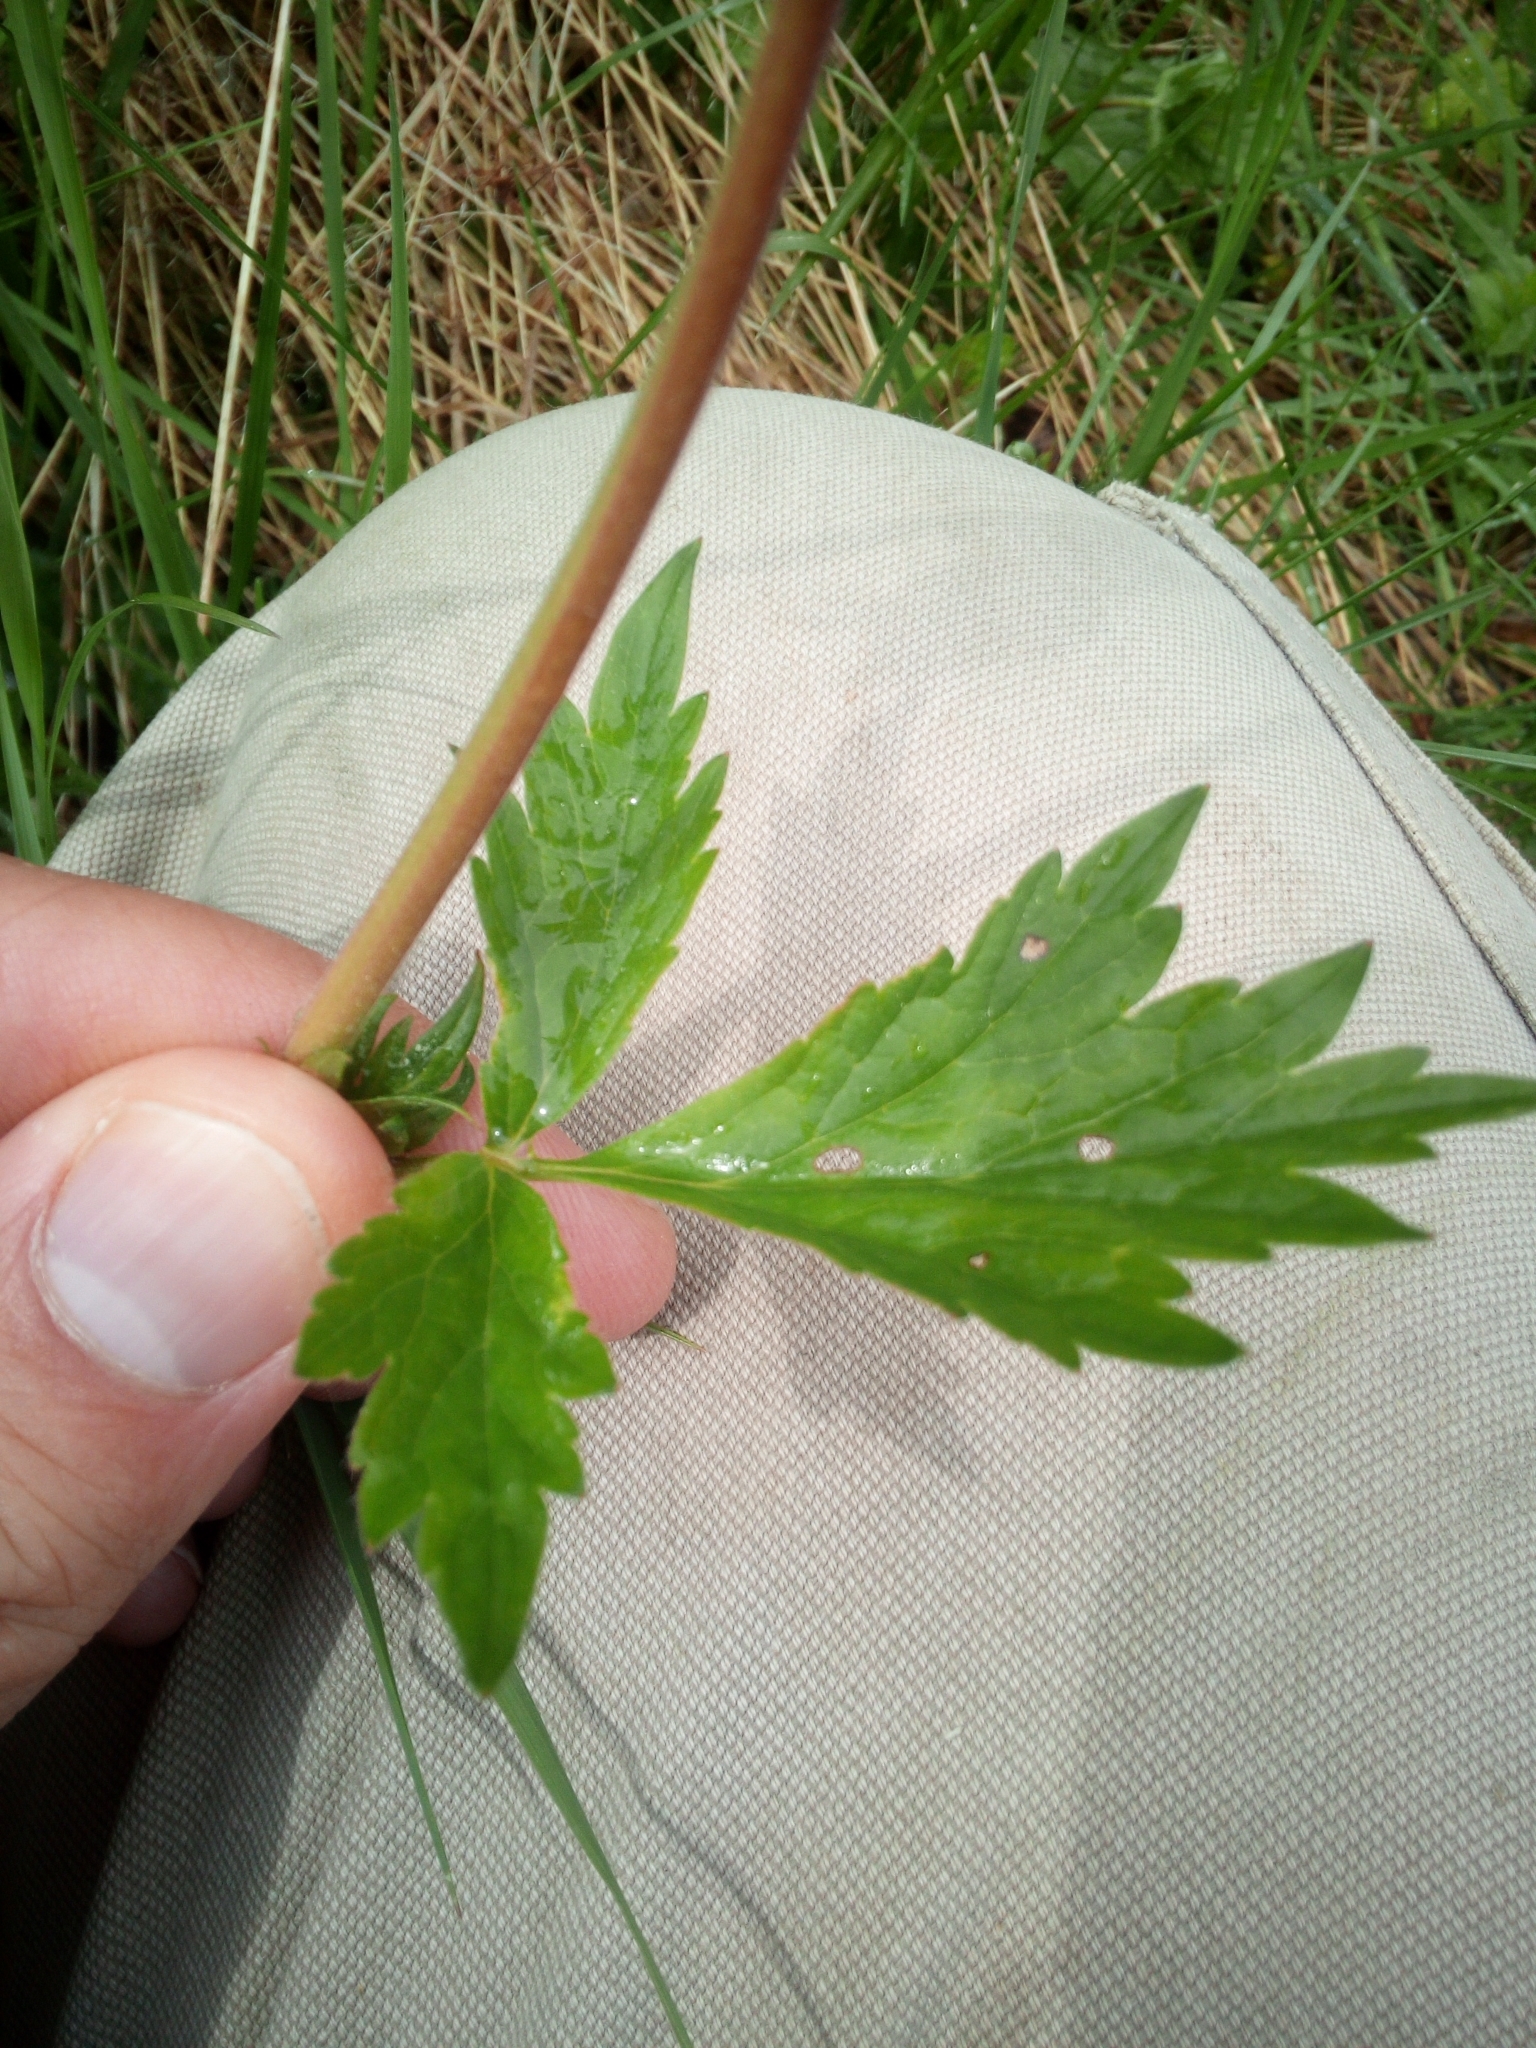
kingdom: Plantae
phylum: Tracheophyta
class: Magnoliopsida
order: Rosales
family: Rosaceae
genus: Geum
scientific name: Geum rivale
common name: Water avens
